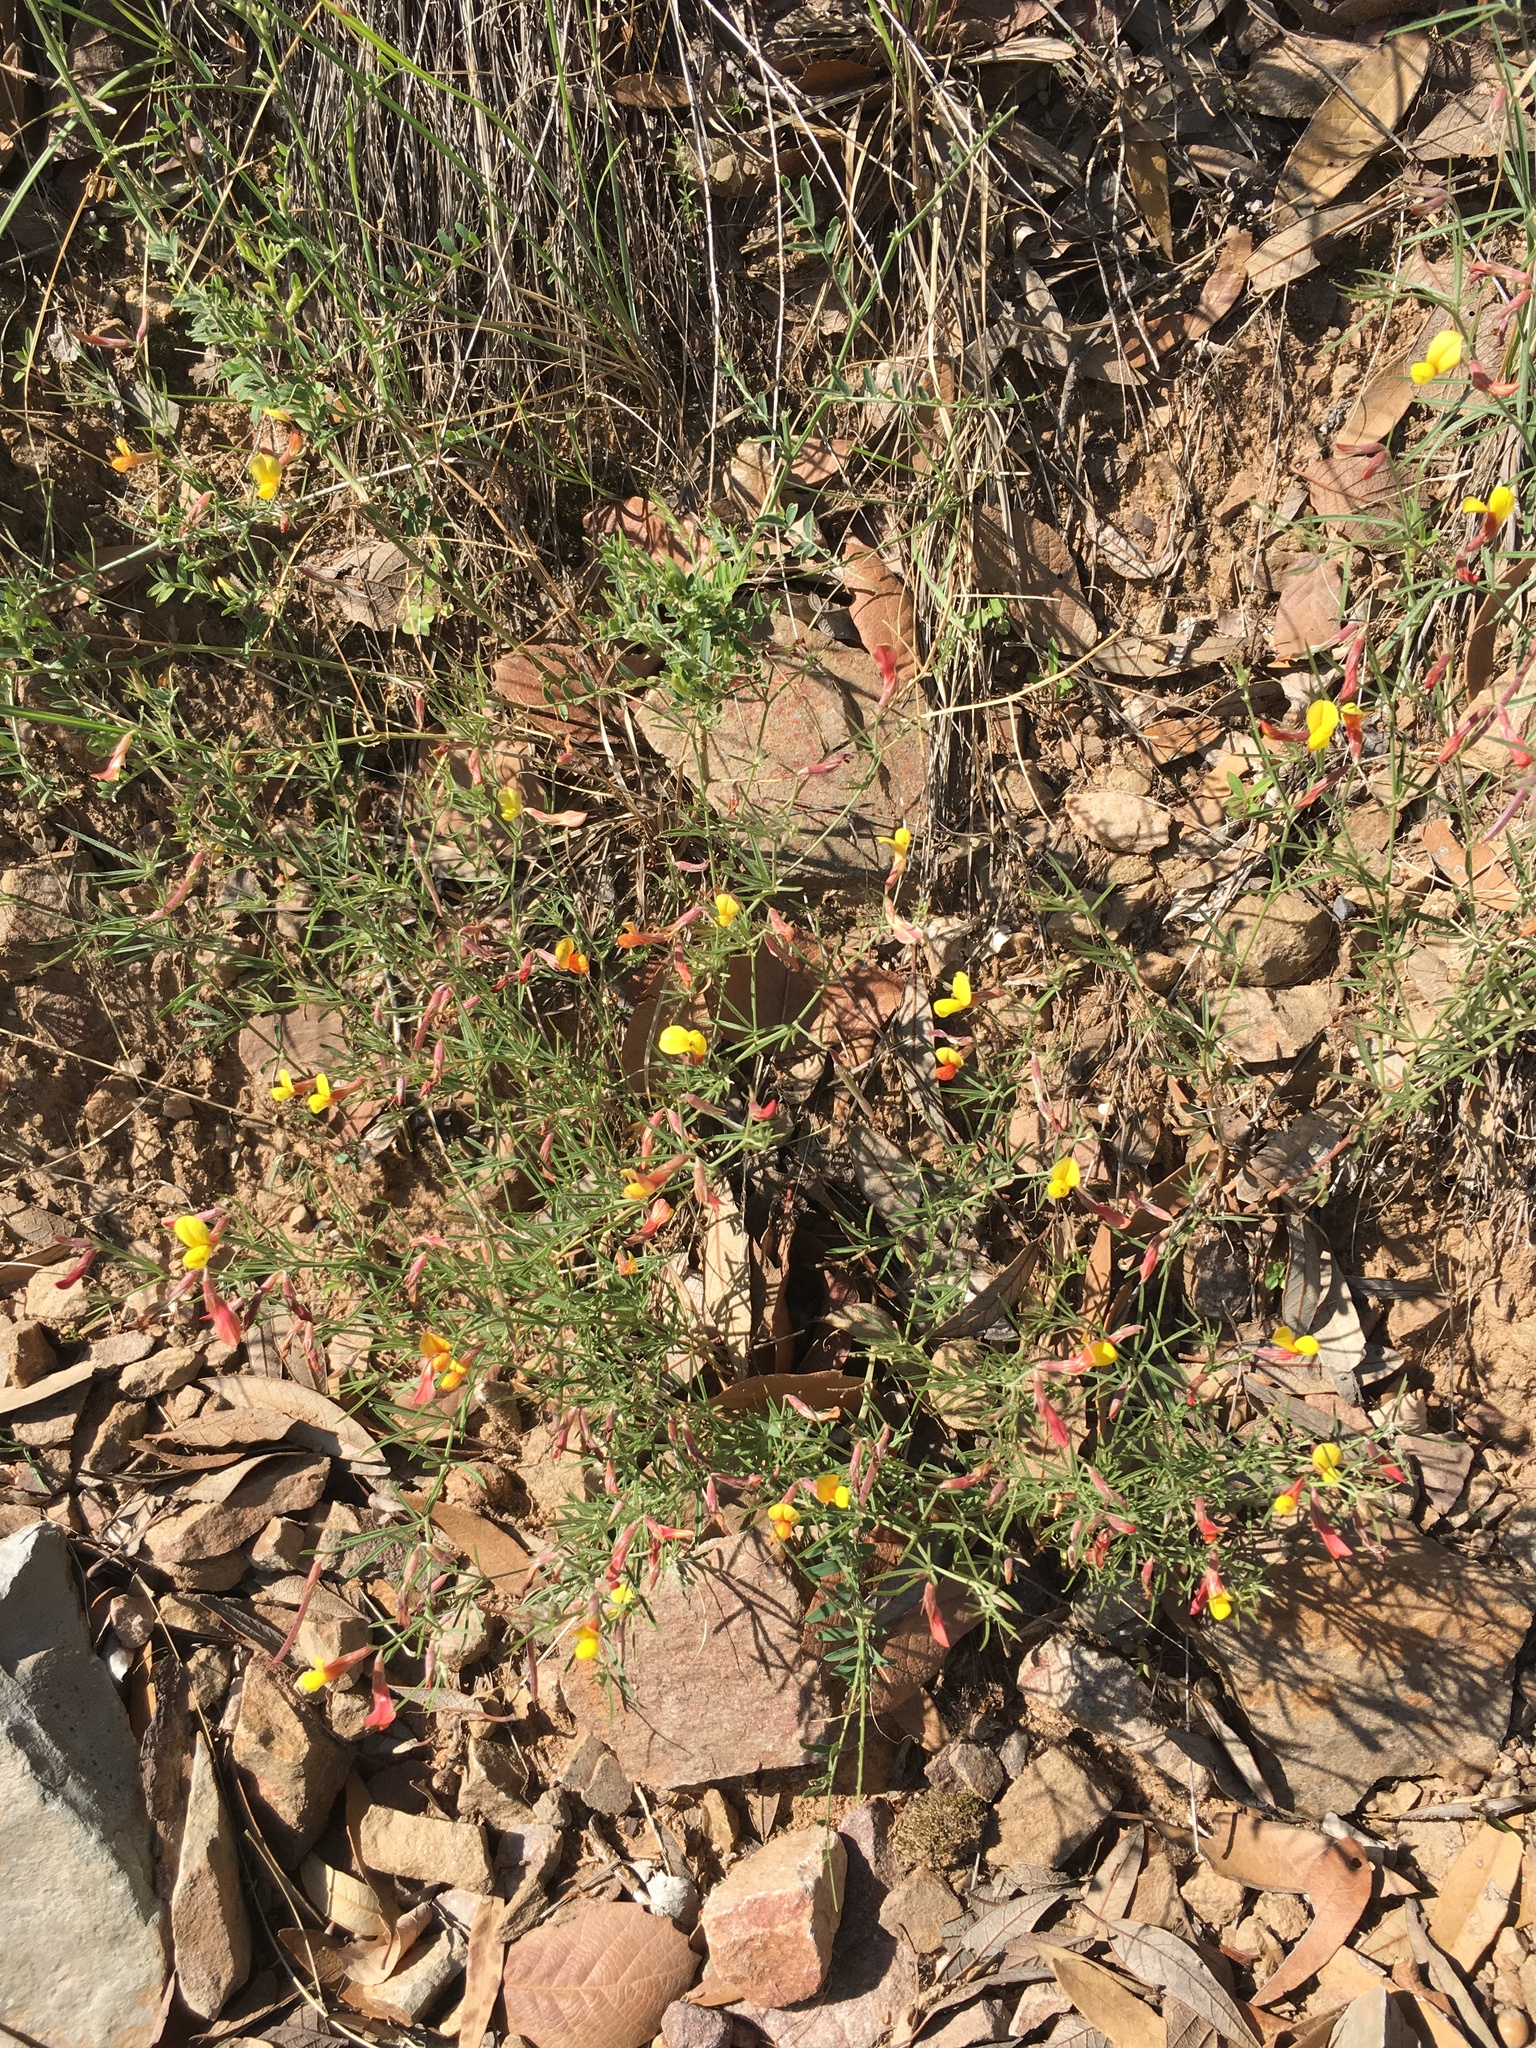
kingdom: Plantae
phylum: Tracheophyta
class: Magnoliopsida
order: Fabales
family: Fabaceae
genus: Acmispon
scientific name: Acmispon oroboides
